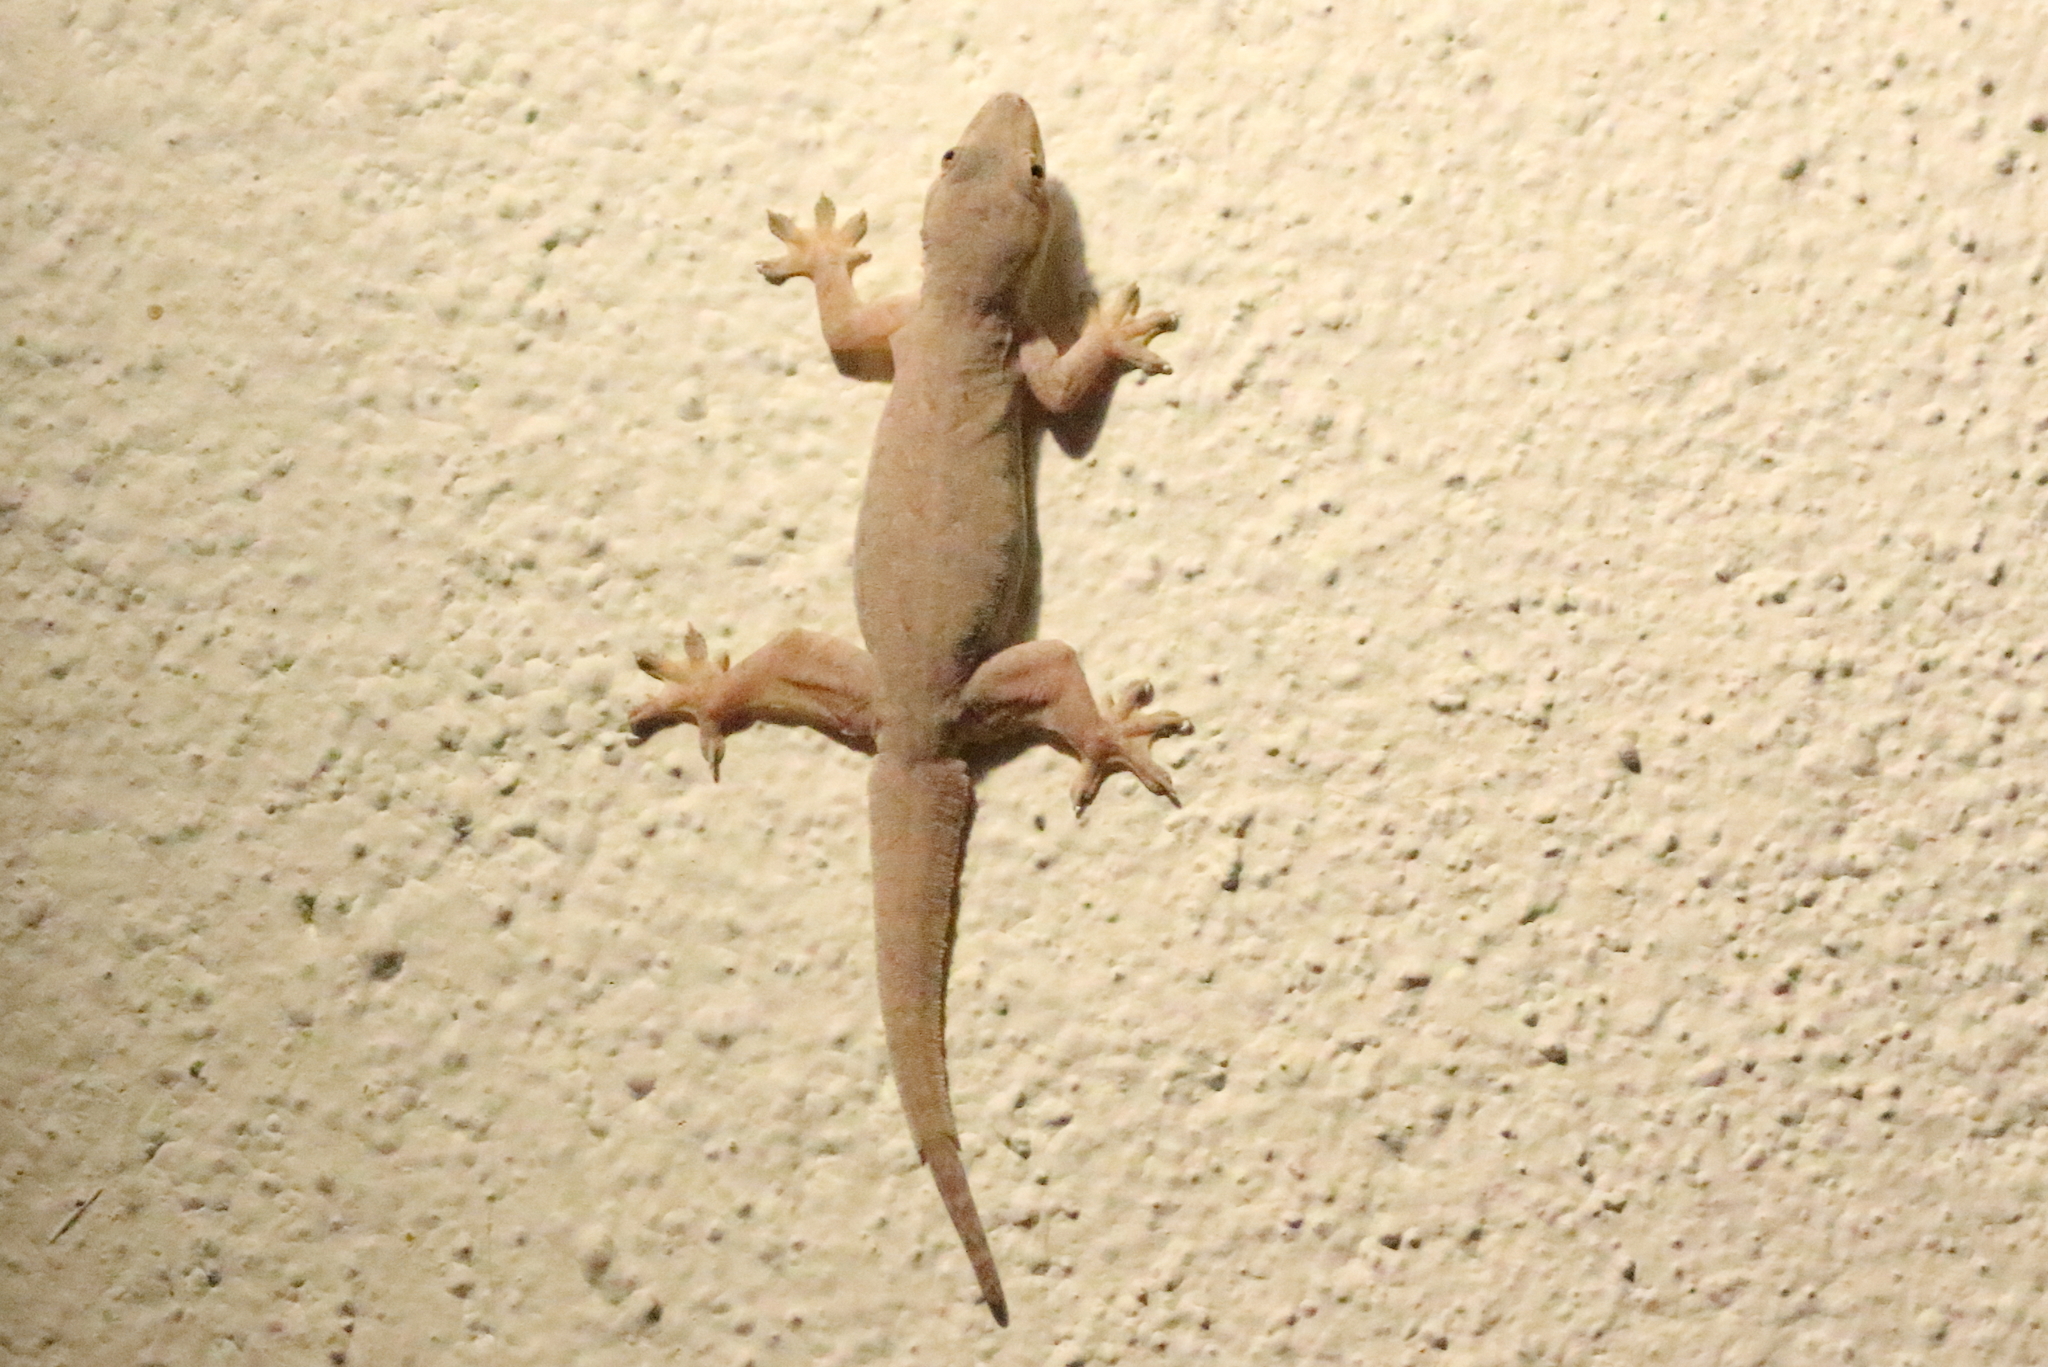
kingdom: Animalia
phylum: Chordata
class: Squamata
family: Gekkonidae
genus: Hemidactylus
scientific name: Hemidactylus platyurus
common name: Flat-tailed house gecko
